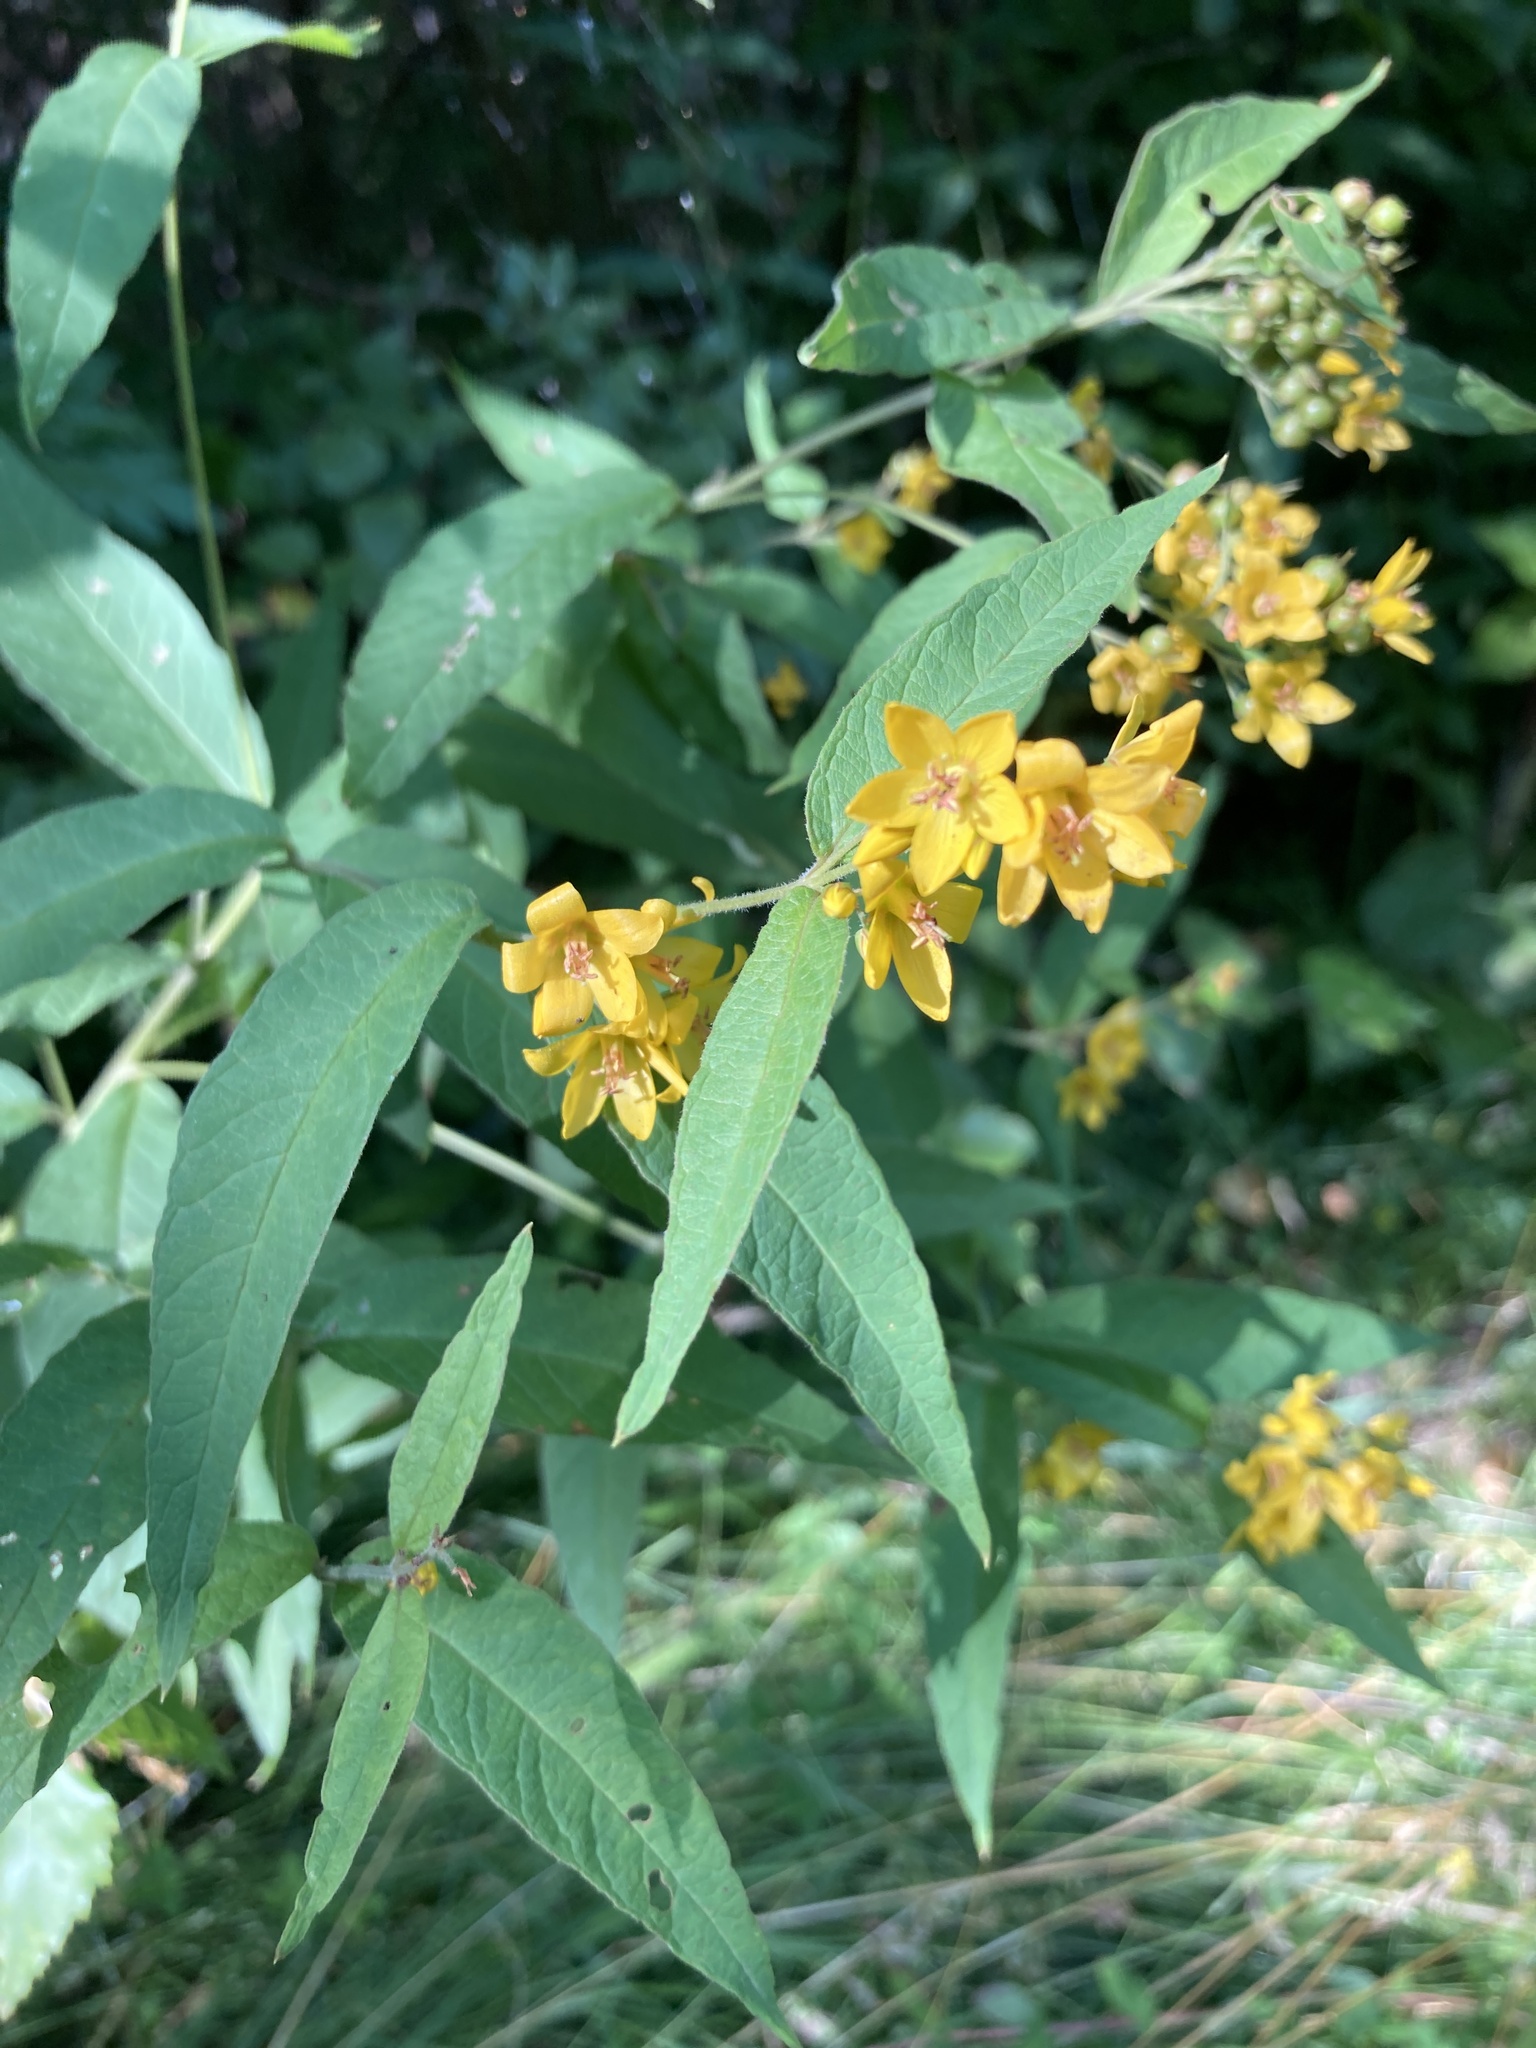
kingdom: Plantae
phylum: Tracheophyta
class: Magnoliopsida
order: Ericales
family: Primulaceae
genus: Lysimachia
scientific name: Lysimachia vulgaris
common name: Yellow loosestrife
